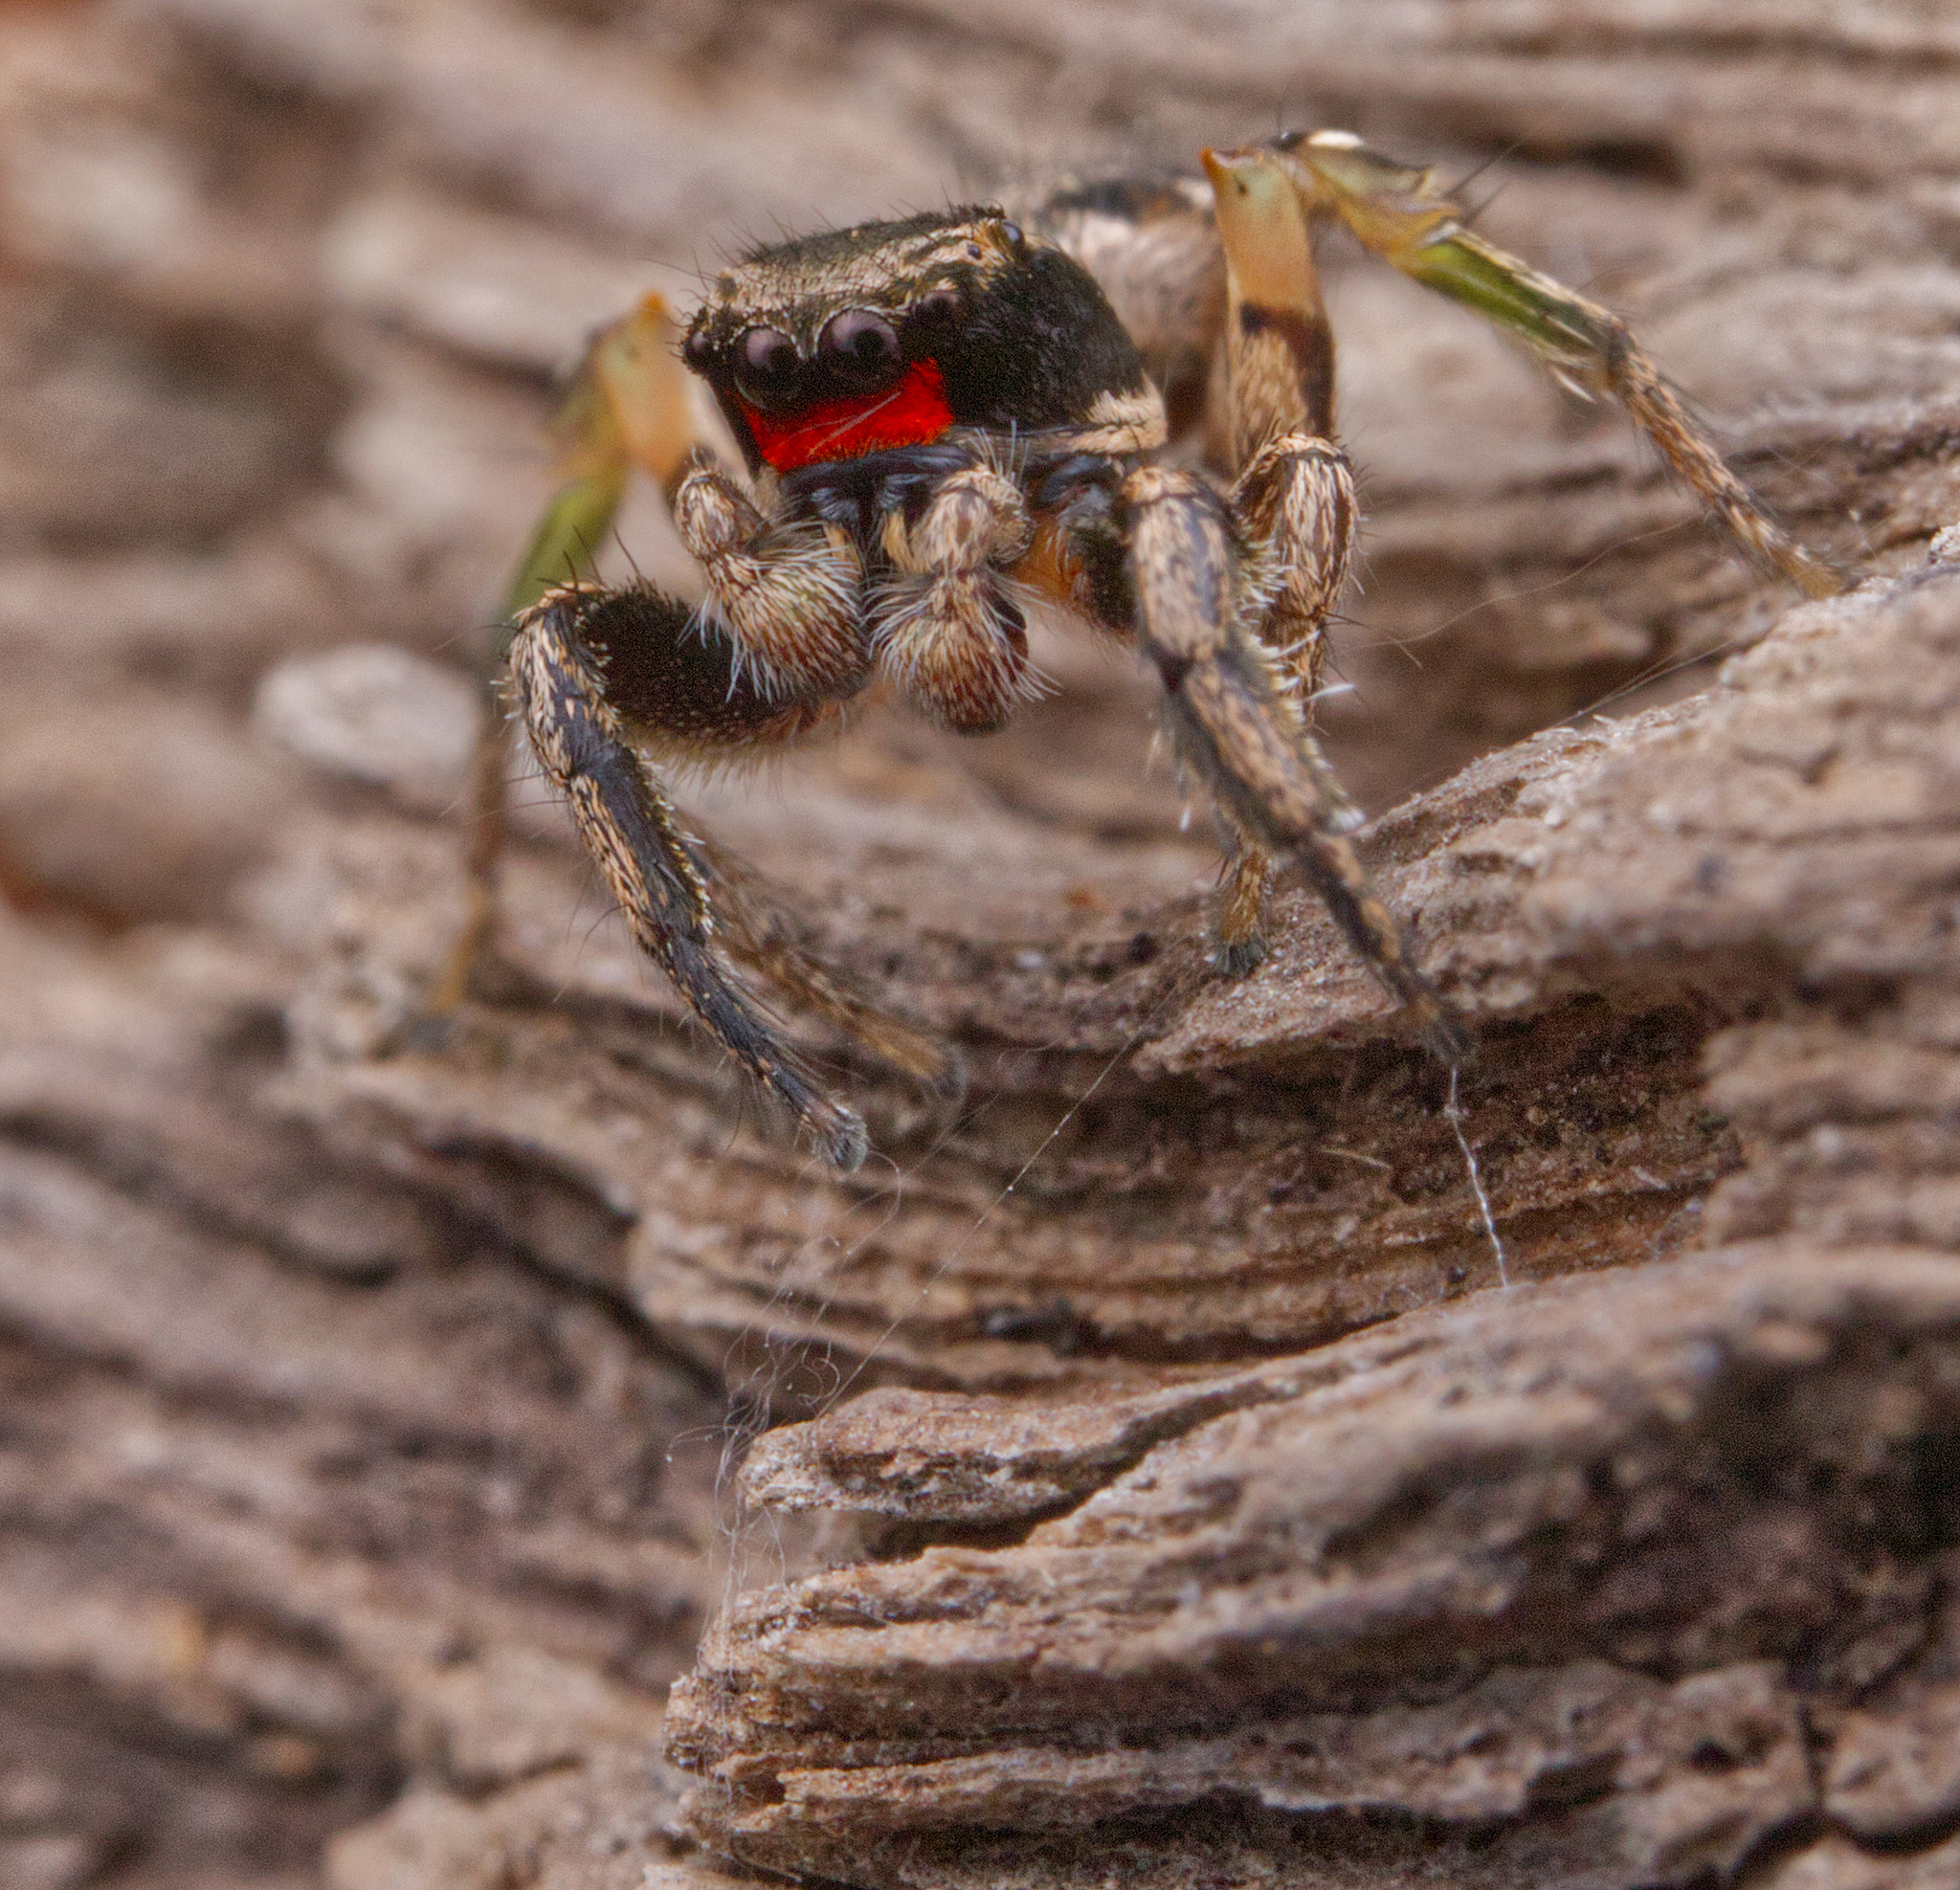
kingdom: Animalia
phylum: Arthropoda
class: Arachnida
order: Araneae
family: Salticidae
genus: Habronattus
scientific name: Habronattus coecatus
